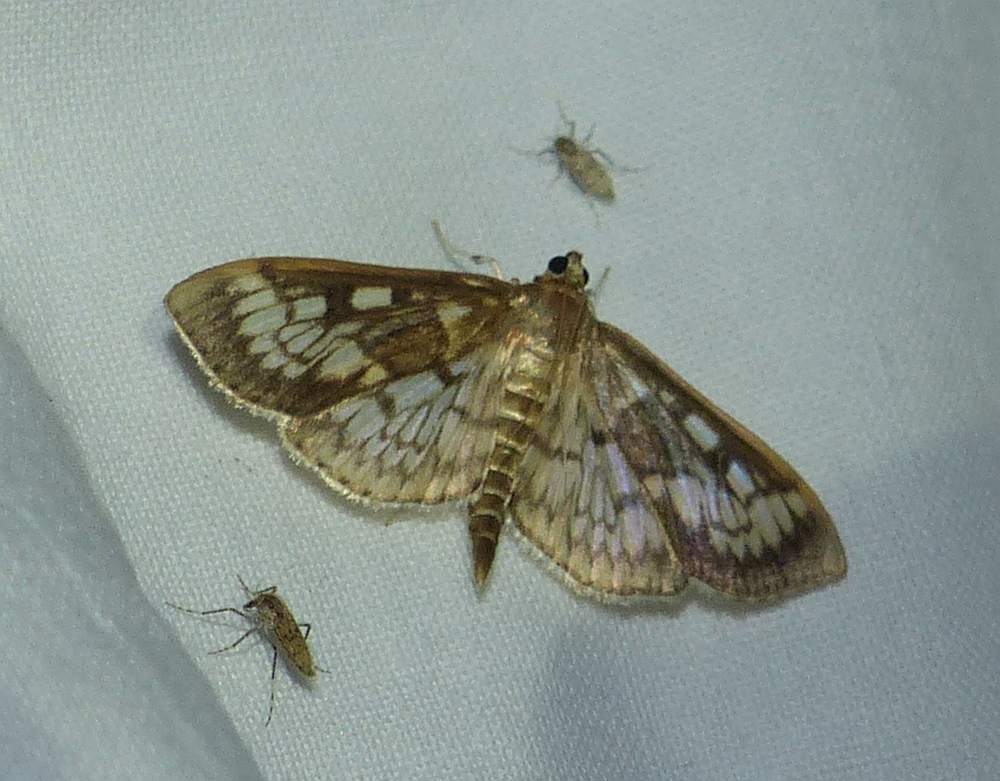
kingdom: Animalia
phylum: Arthropoda
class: Insecta
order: Lepidoptera
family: Crambidae
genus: Herpetogramma
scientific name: Herpetogramma thestealis
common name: Zigzag herpetogramma moth
